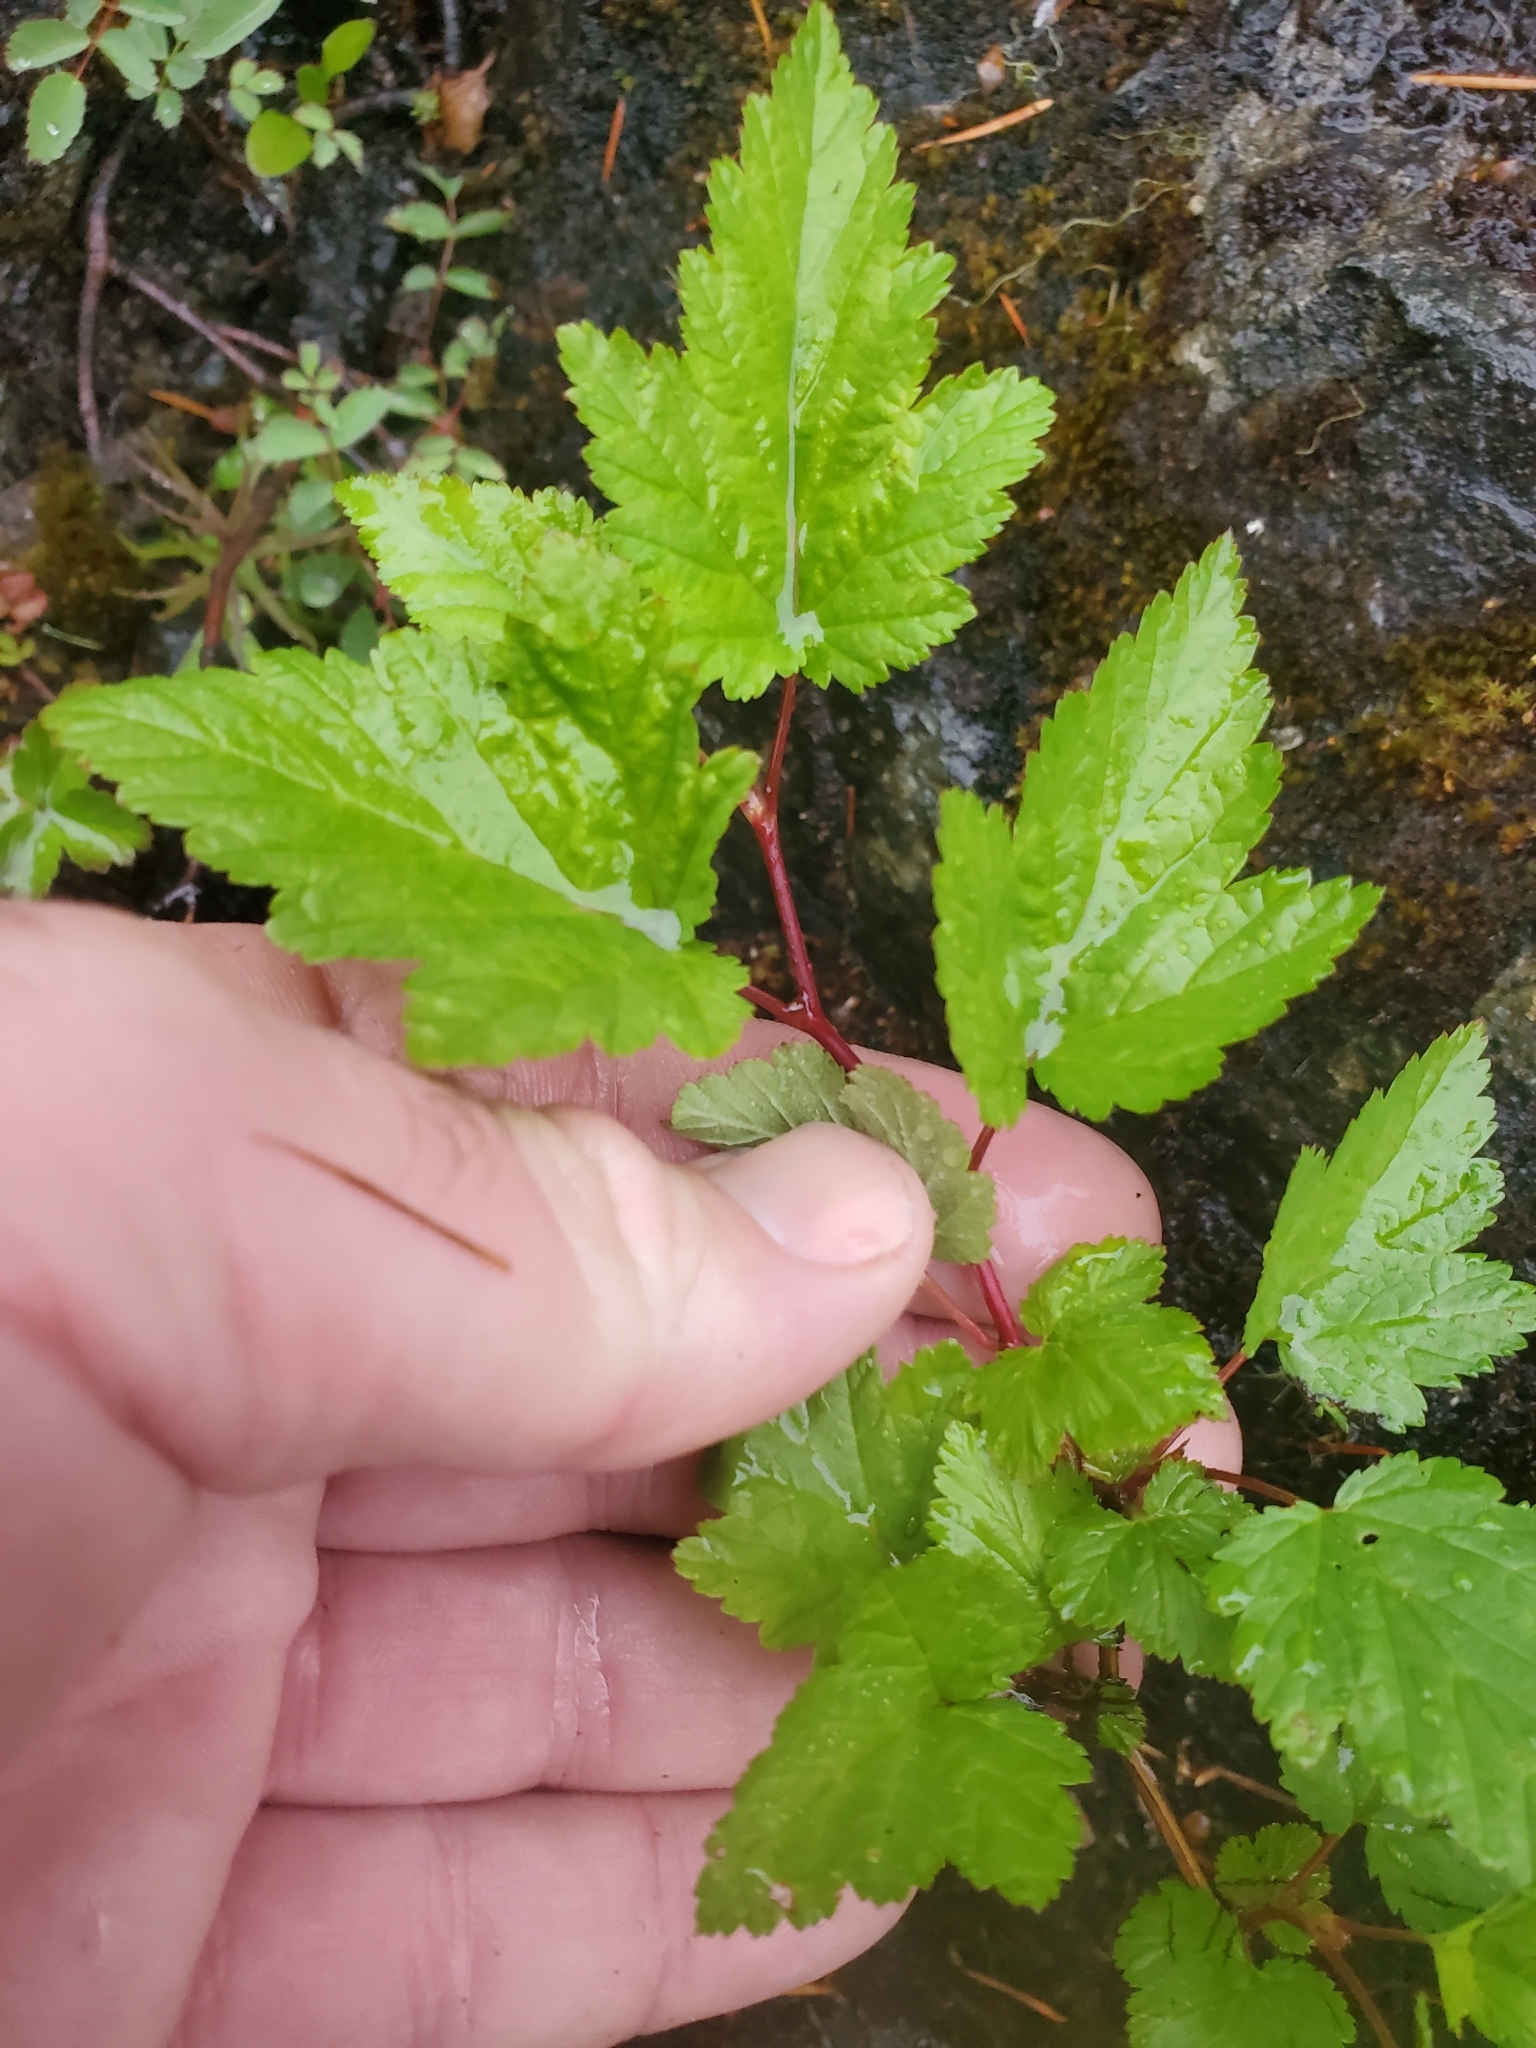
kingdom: Plantae
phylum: Tracheophyta
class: Magnoliopsida
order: Rosales
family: Rosaceae
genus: Physocarpus
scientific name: Physocarpus capitatus
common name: Pacific ninebark
